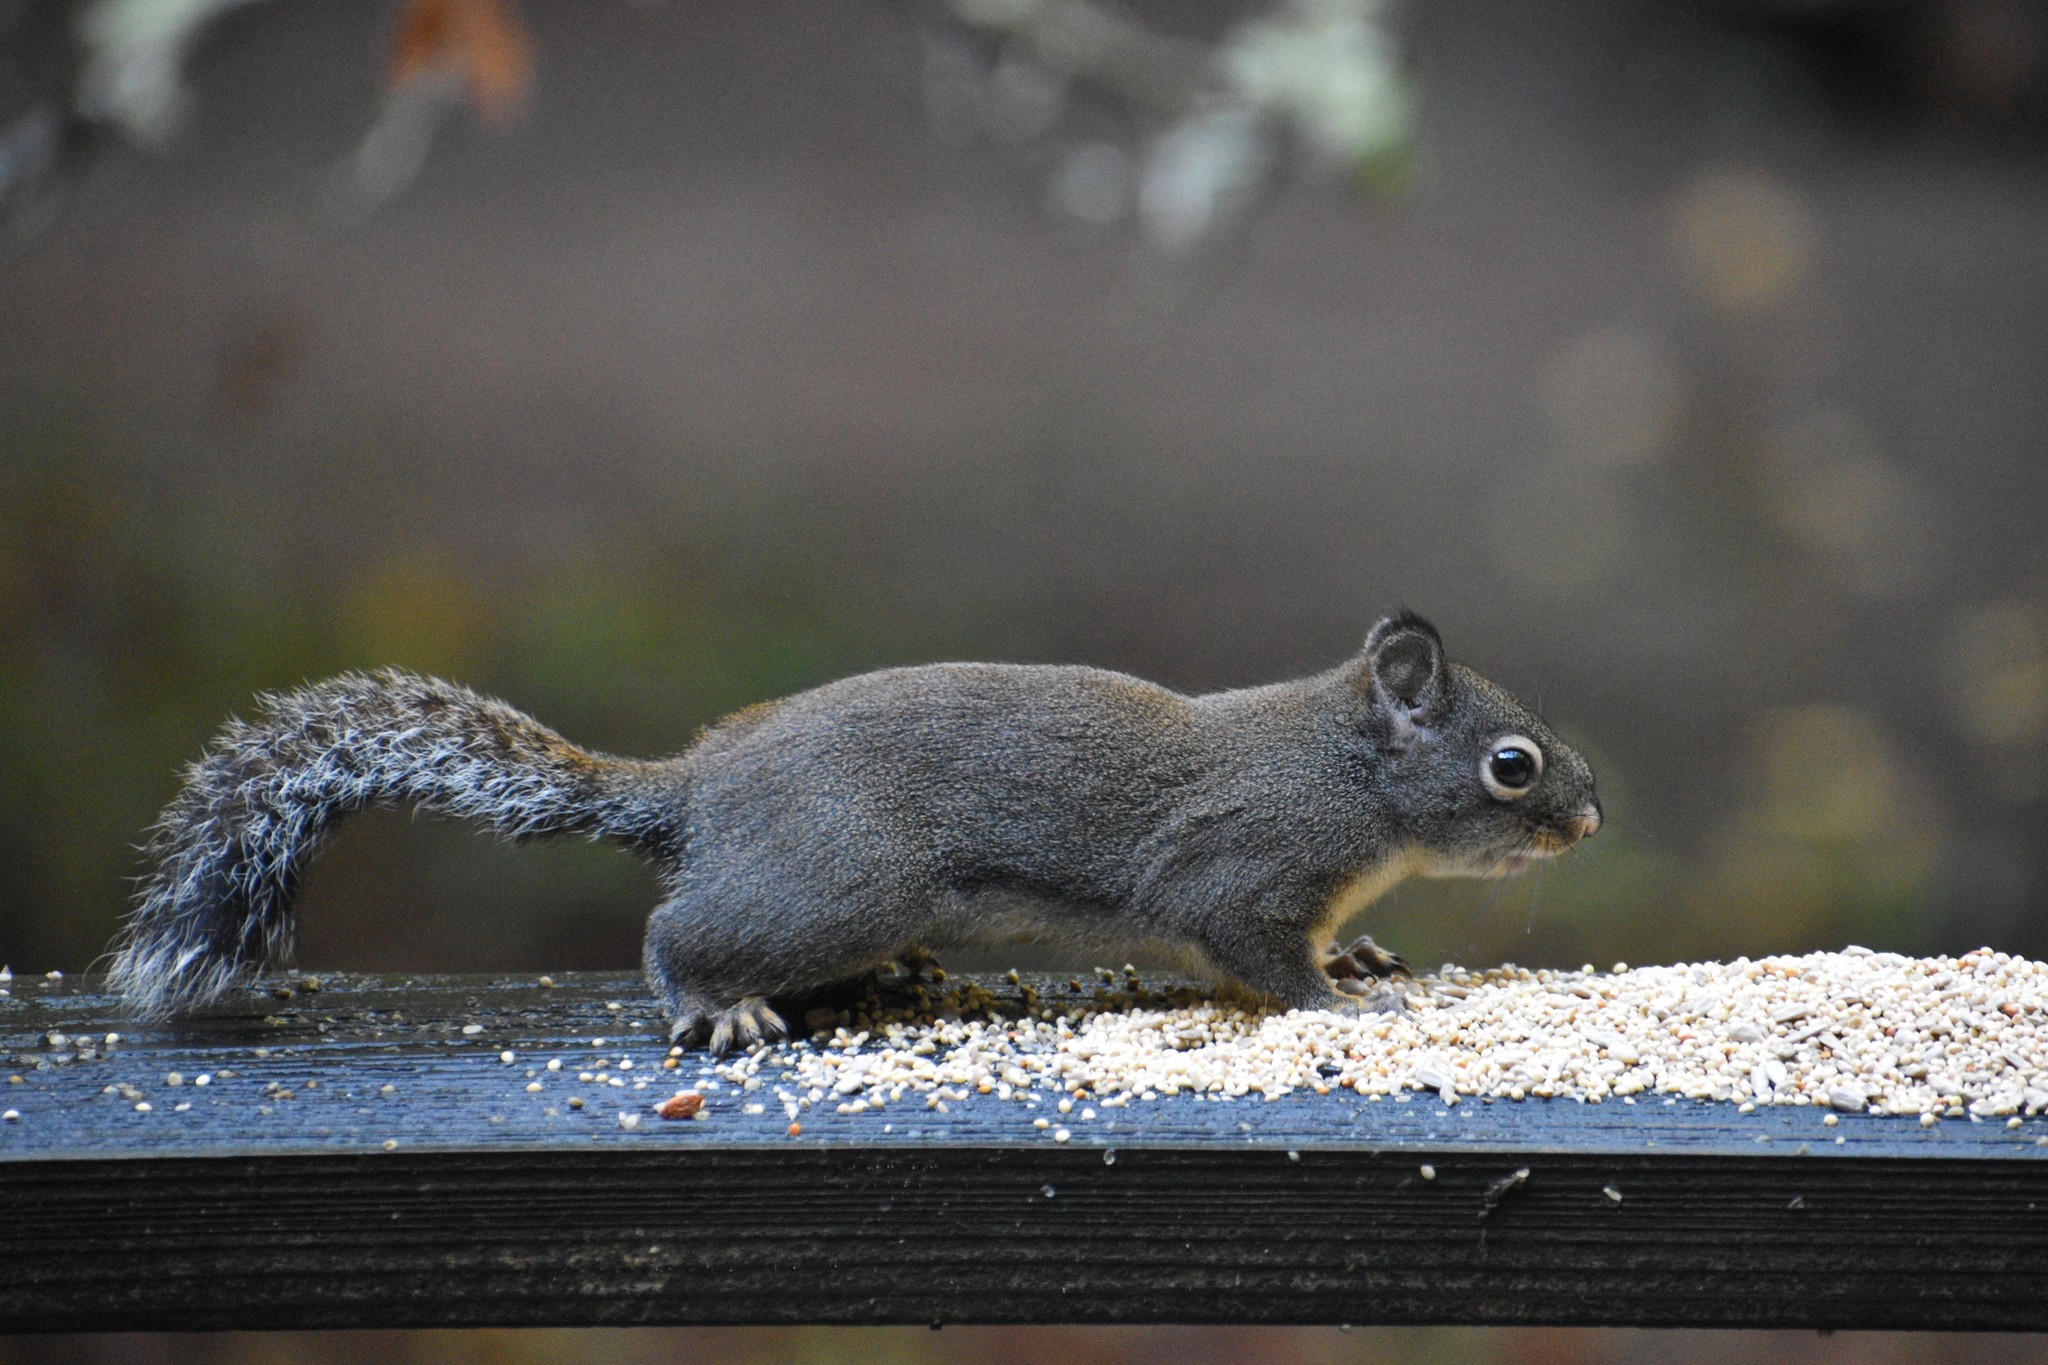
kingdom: Animalia
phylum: Chordata
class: Mammalia
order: Rodentia
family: Sciuridae
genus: Tamiasciurus
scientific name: Tamiasciurus douglasii
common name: Douglas's squirrel
